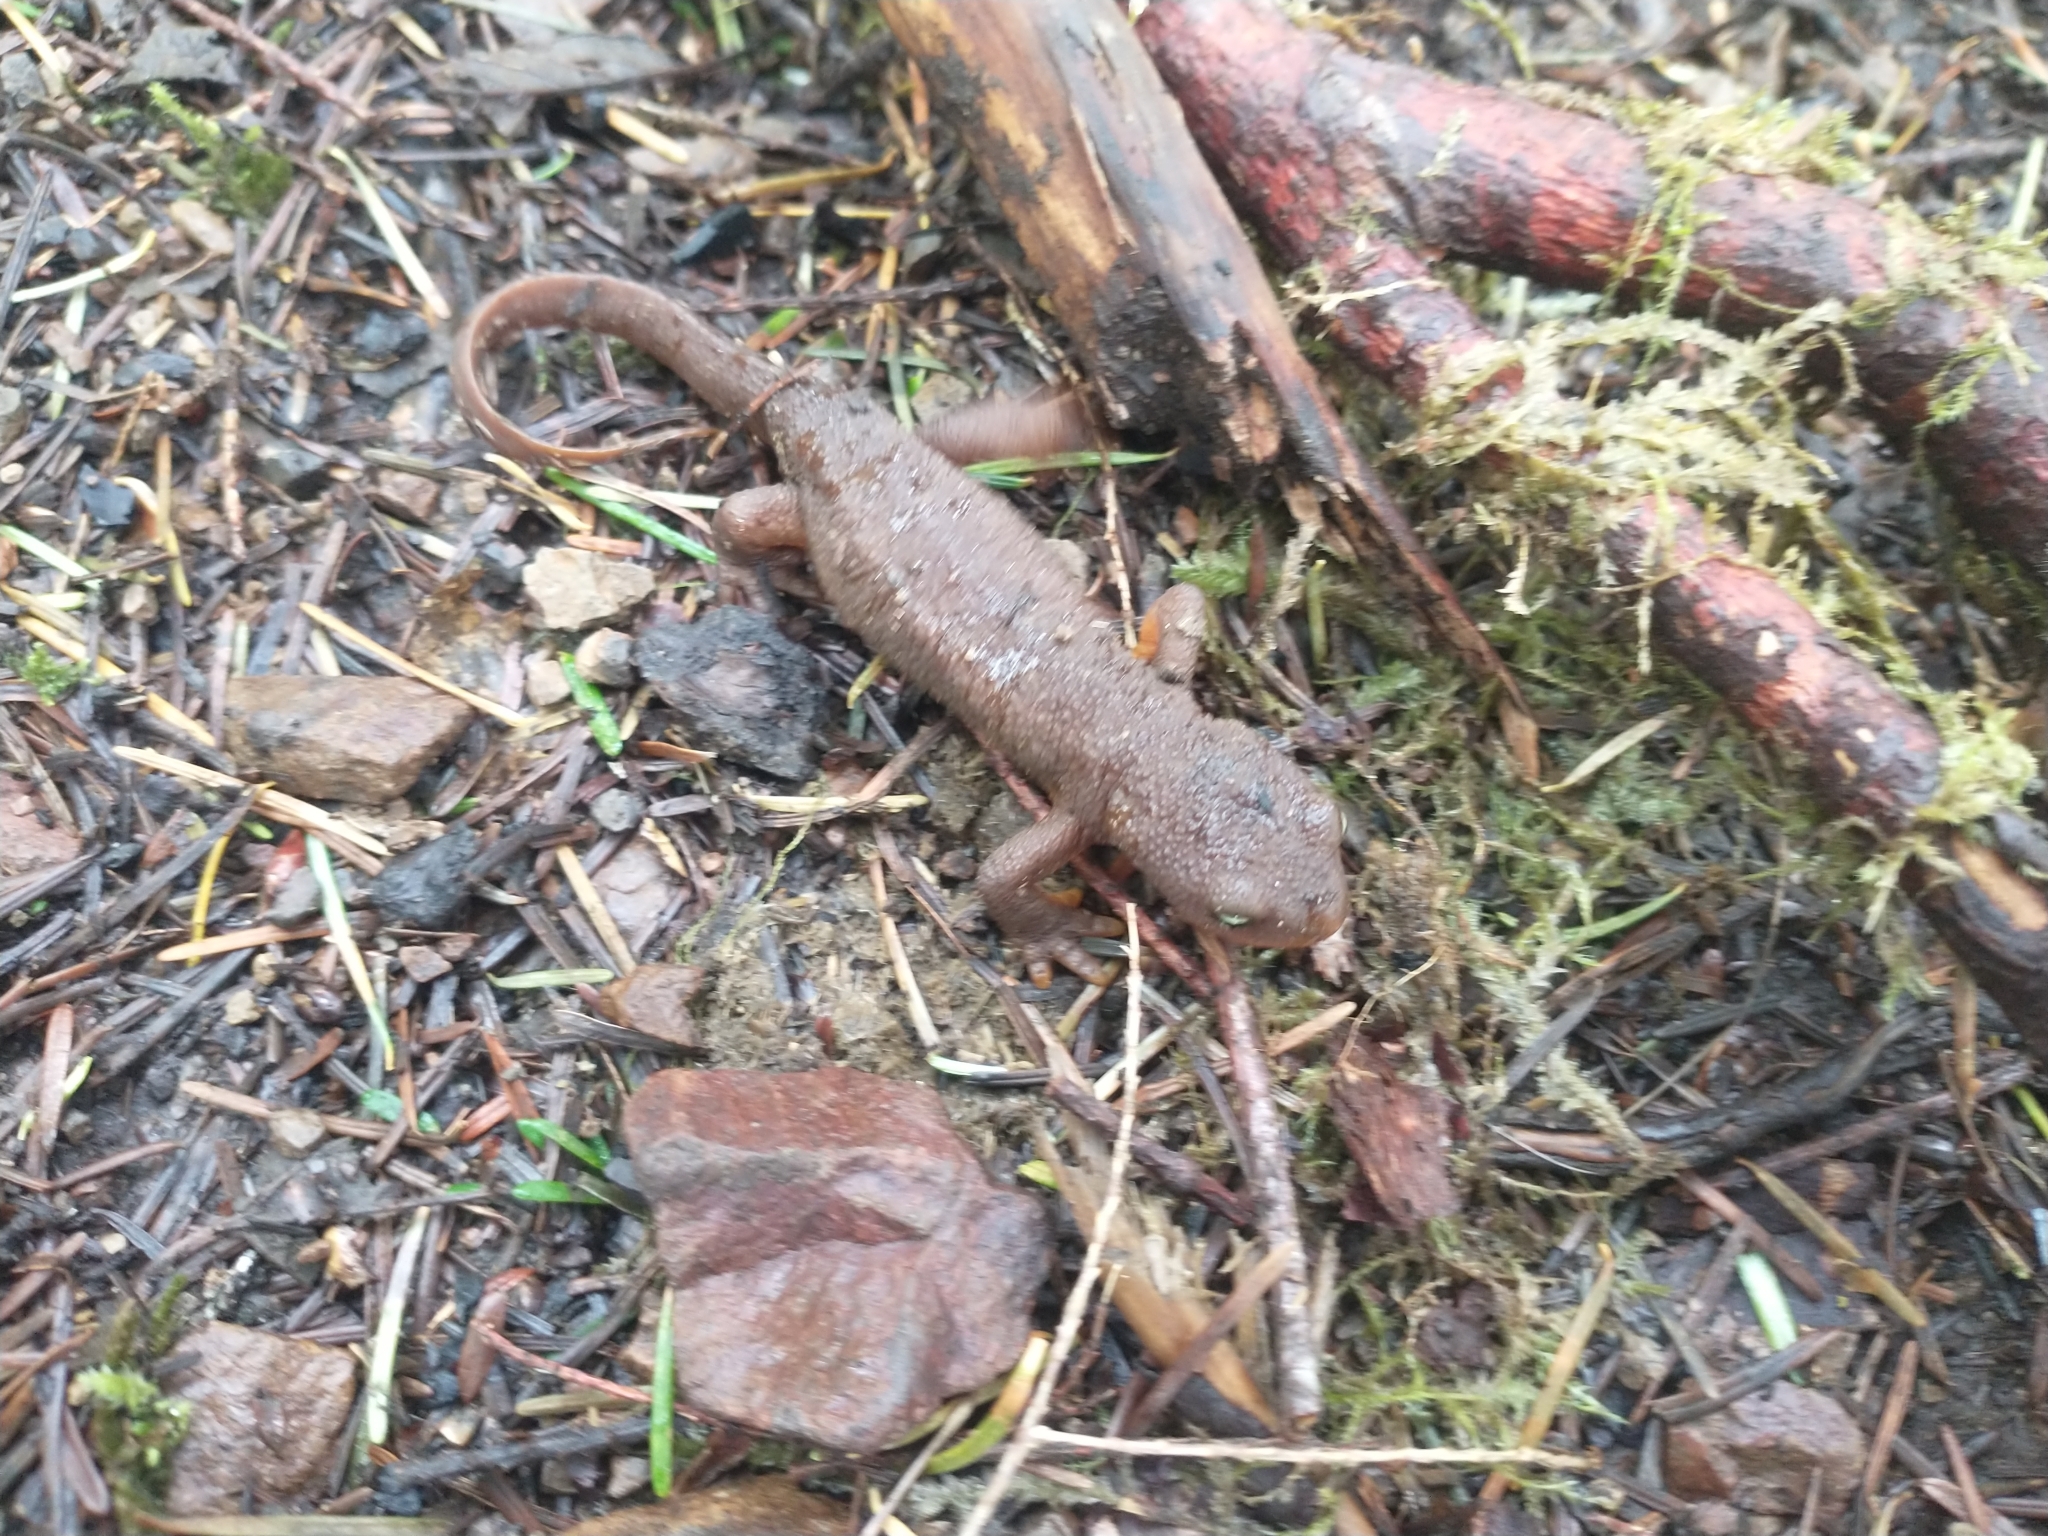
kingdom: Animalia
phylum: Chordata
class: Amphibia
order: Caudata
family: Salamandridae
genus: Taricha
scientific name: Taricha granulosa
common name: Roughskin newt
